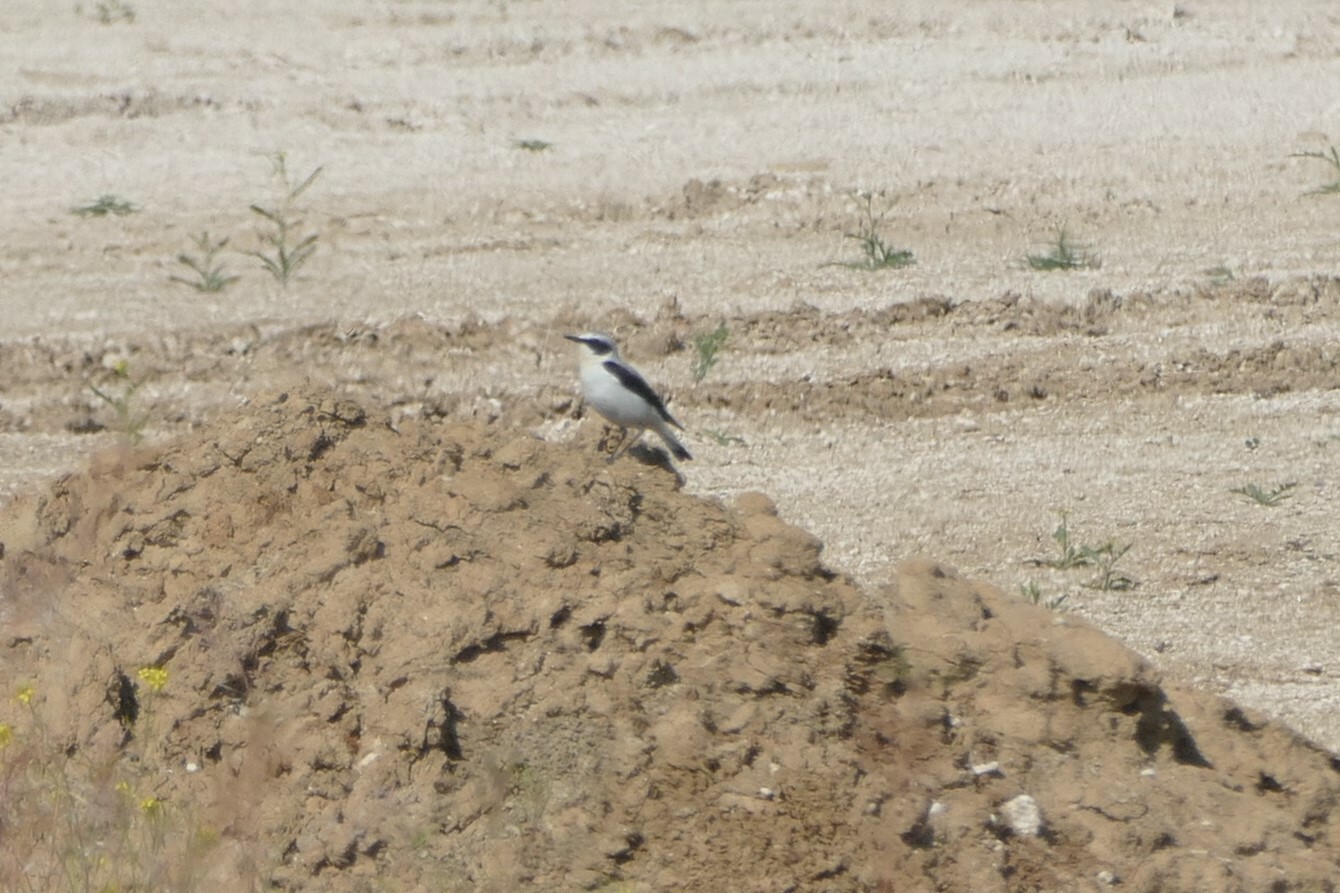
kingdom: Animalia
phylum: Chordata
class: Aves
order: Passeriformes
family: Muscicapidae
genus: Oenanthe
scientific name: Oenanthe oenanthe
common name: Northern wheatear
